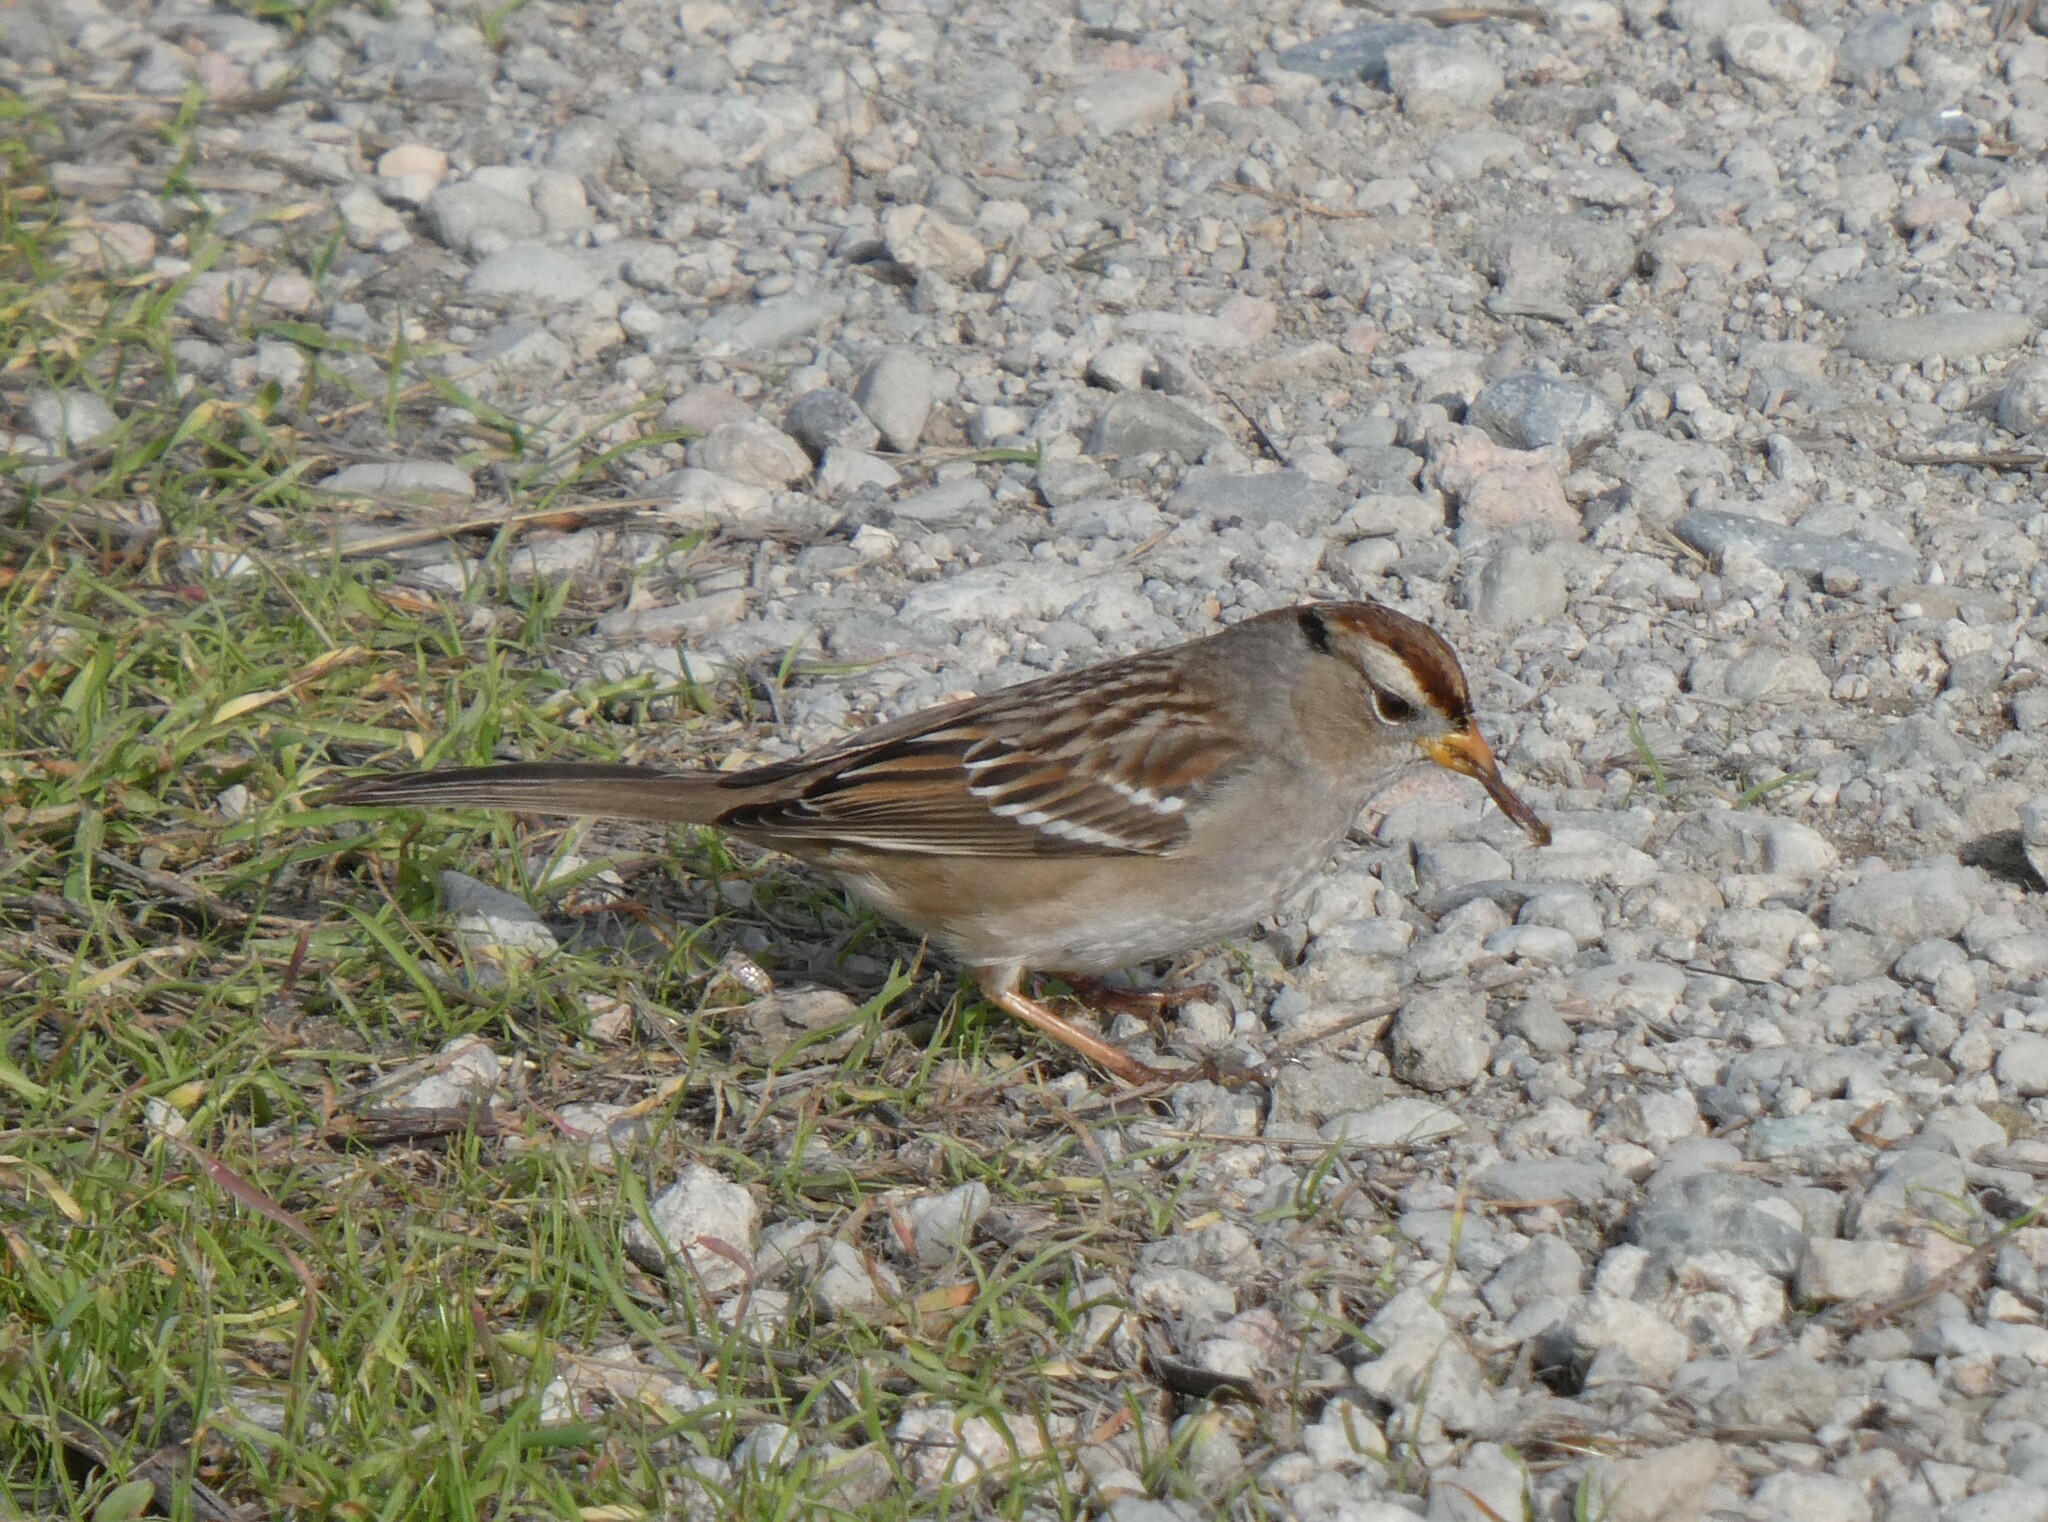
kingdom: Animalia
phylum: Chordata
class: Aves
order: Passeriformes
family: Passerellidae
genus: Zonotrichia
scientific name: Zonotrichia leucophrys
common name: White-crowned sparrow
